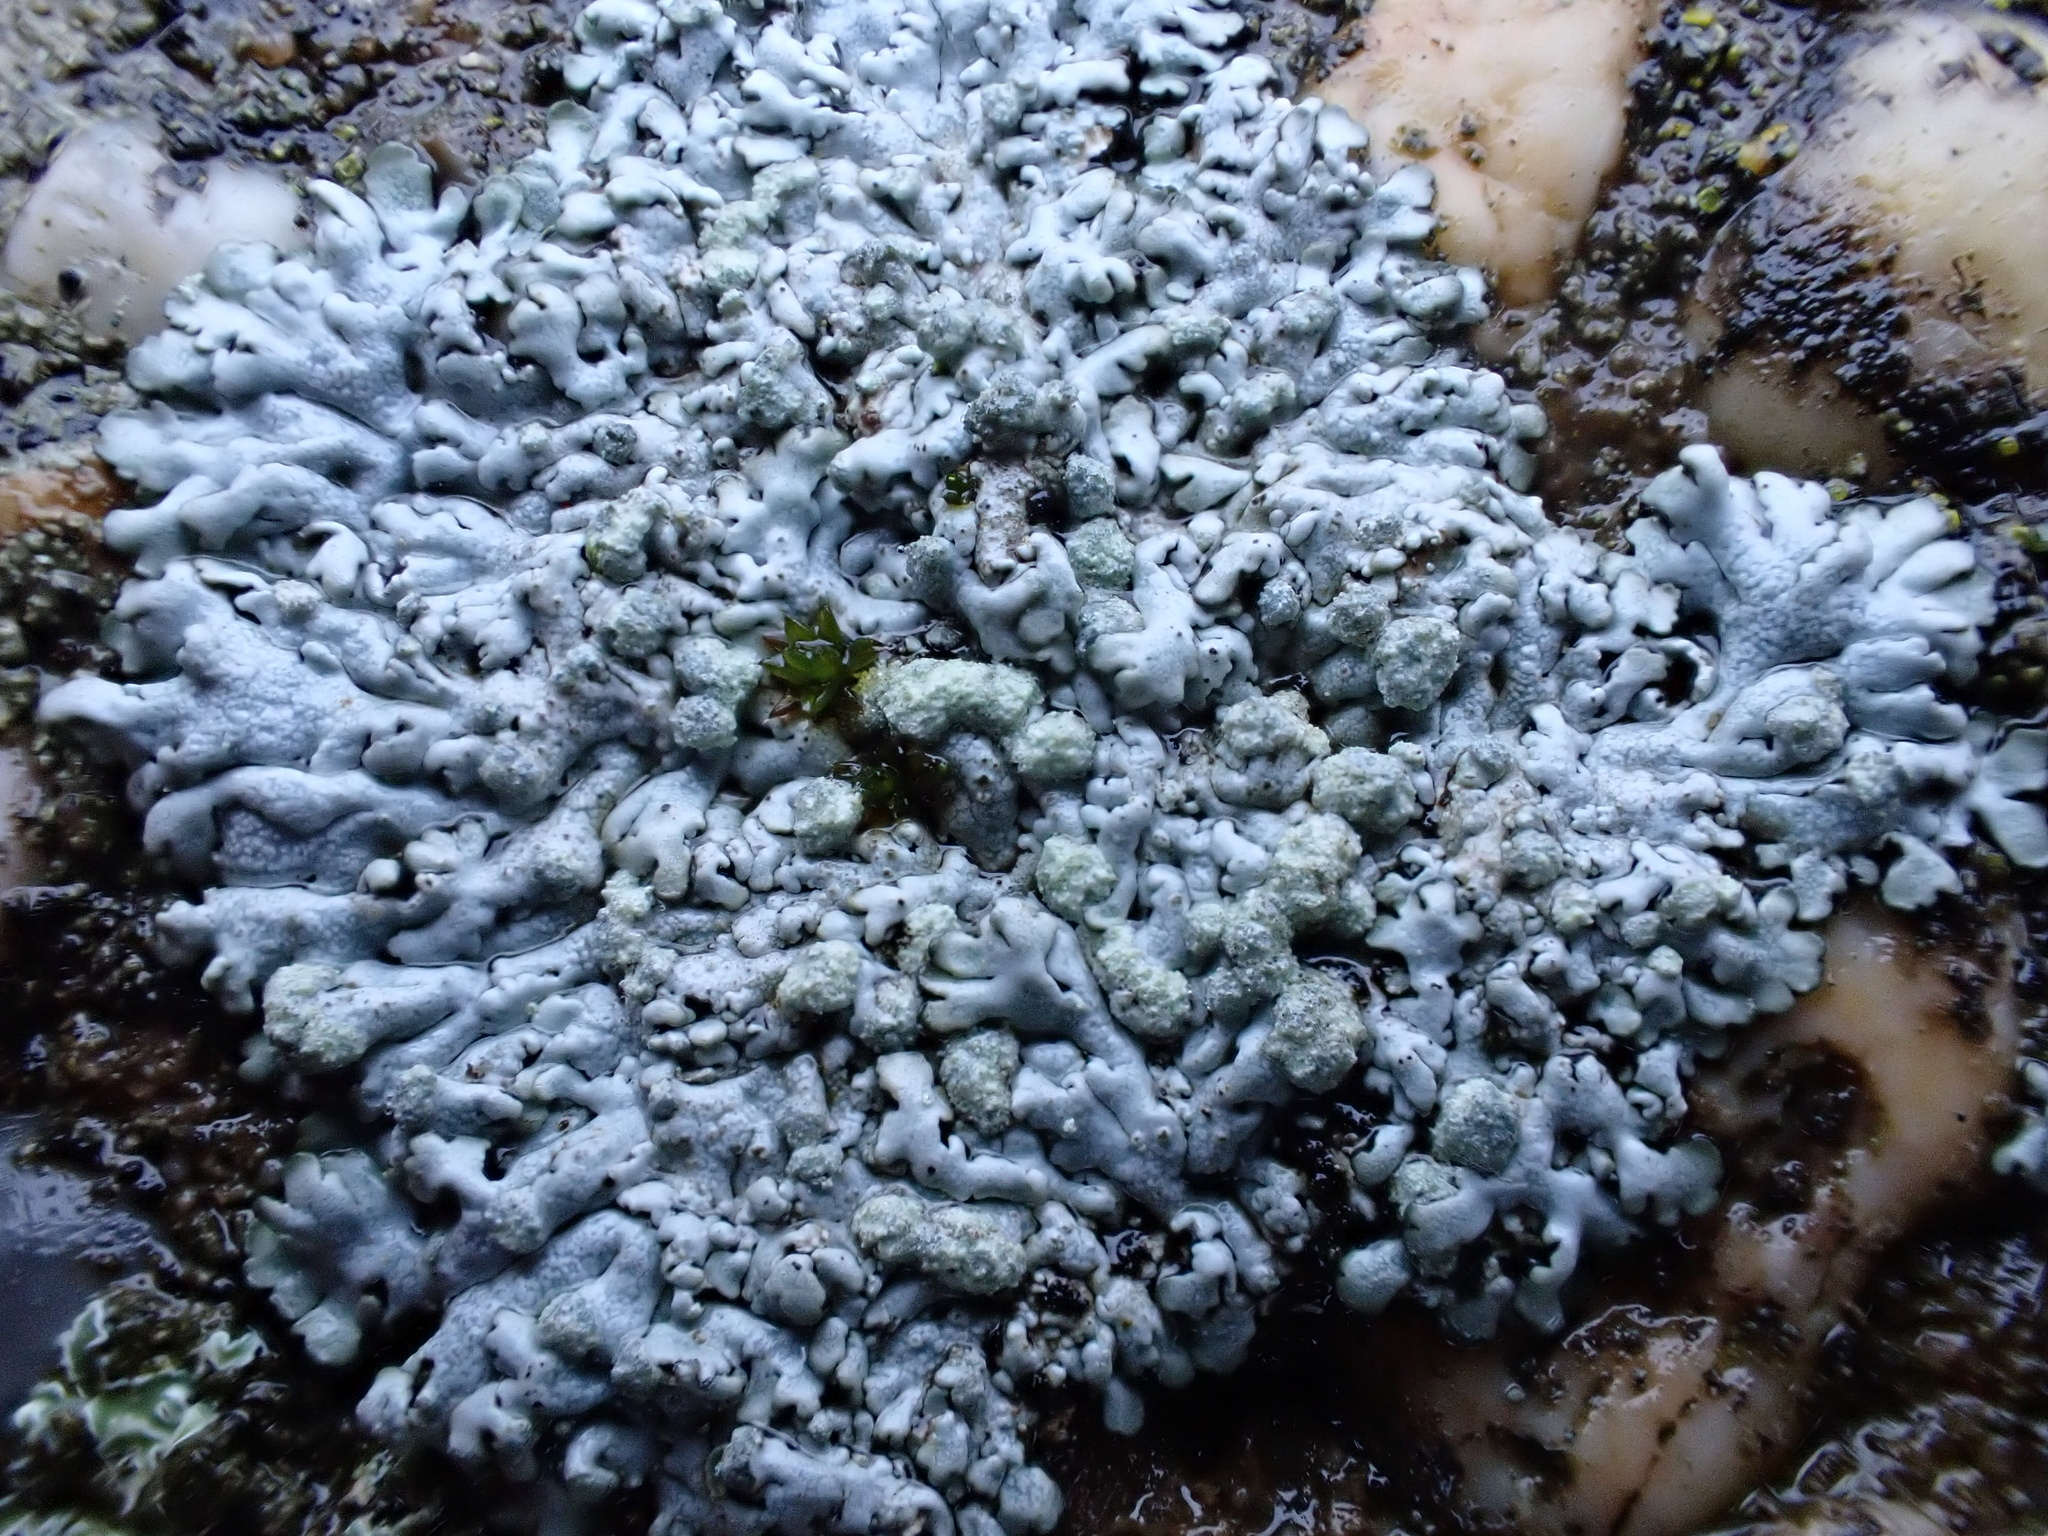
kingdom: Fungi
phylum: Ascomycota
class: Lecanoromycetes
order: Caliciales
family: Physciaceae
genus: Physcia
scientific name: Physcia caesia
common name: Blue-gray rosette lichen
